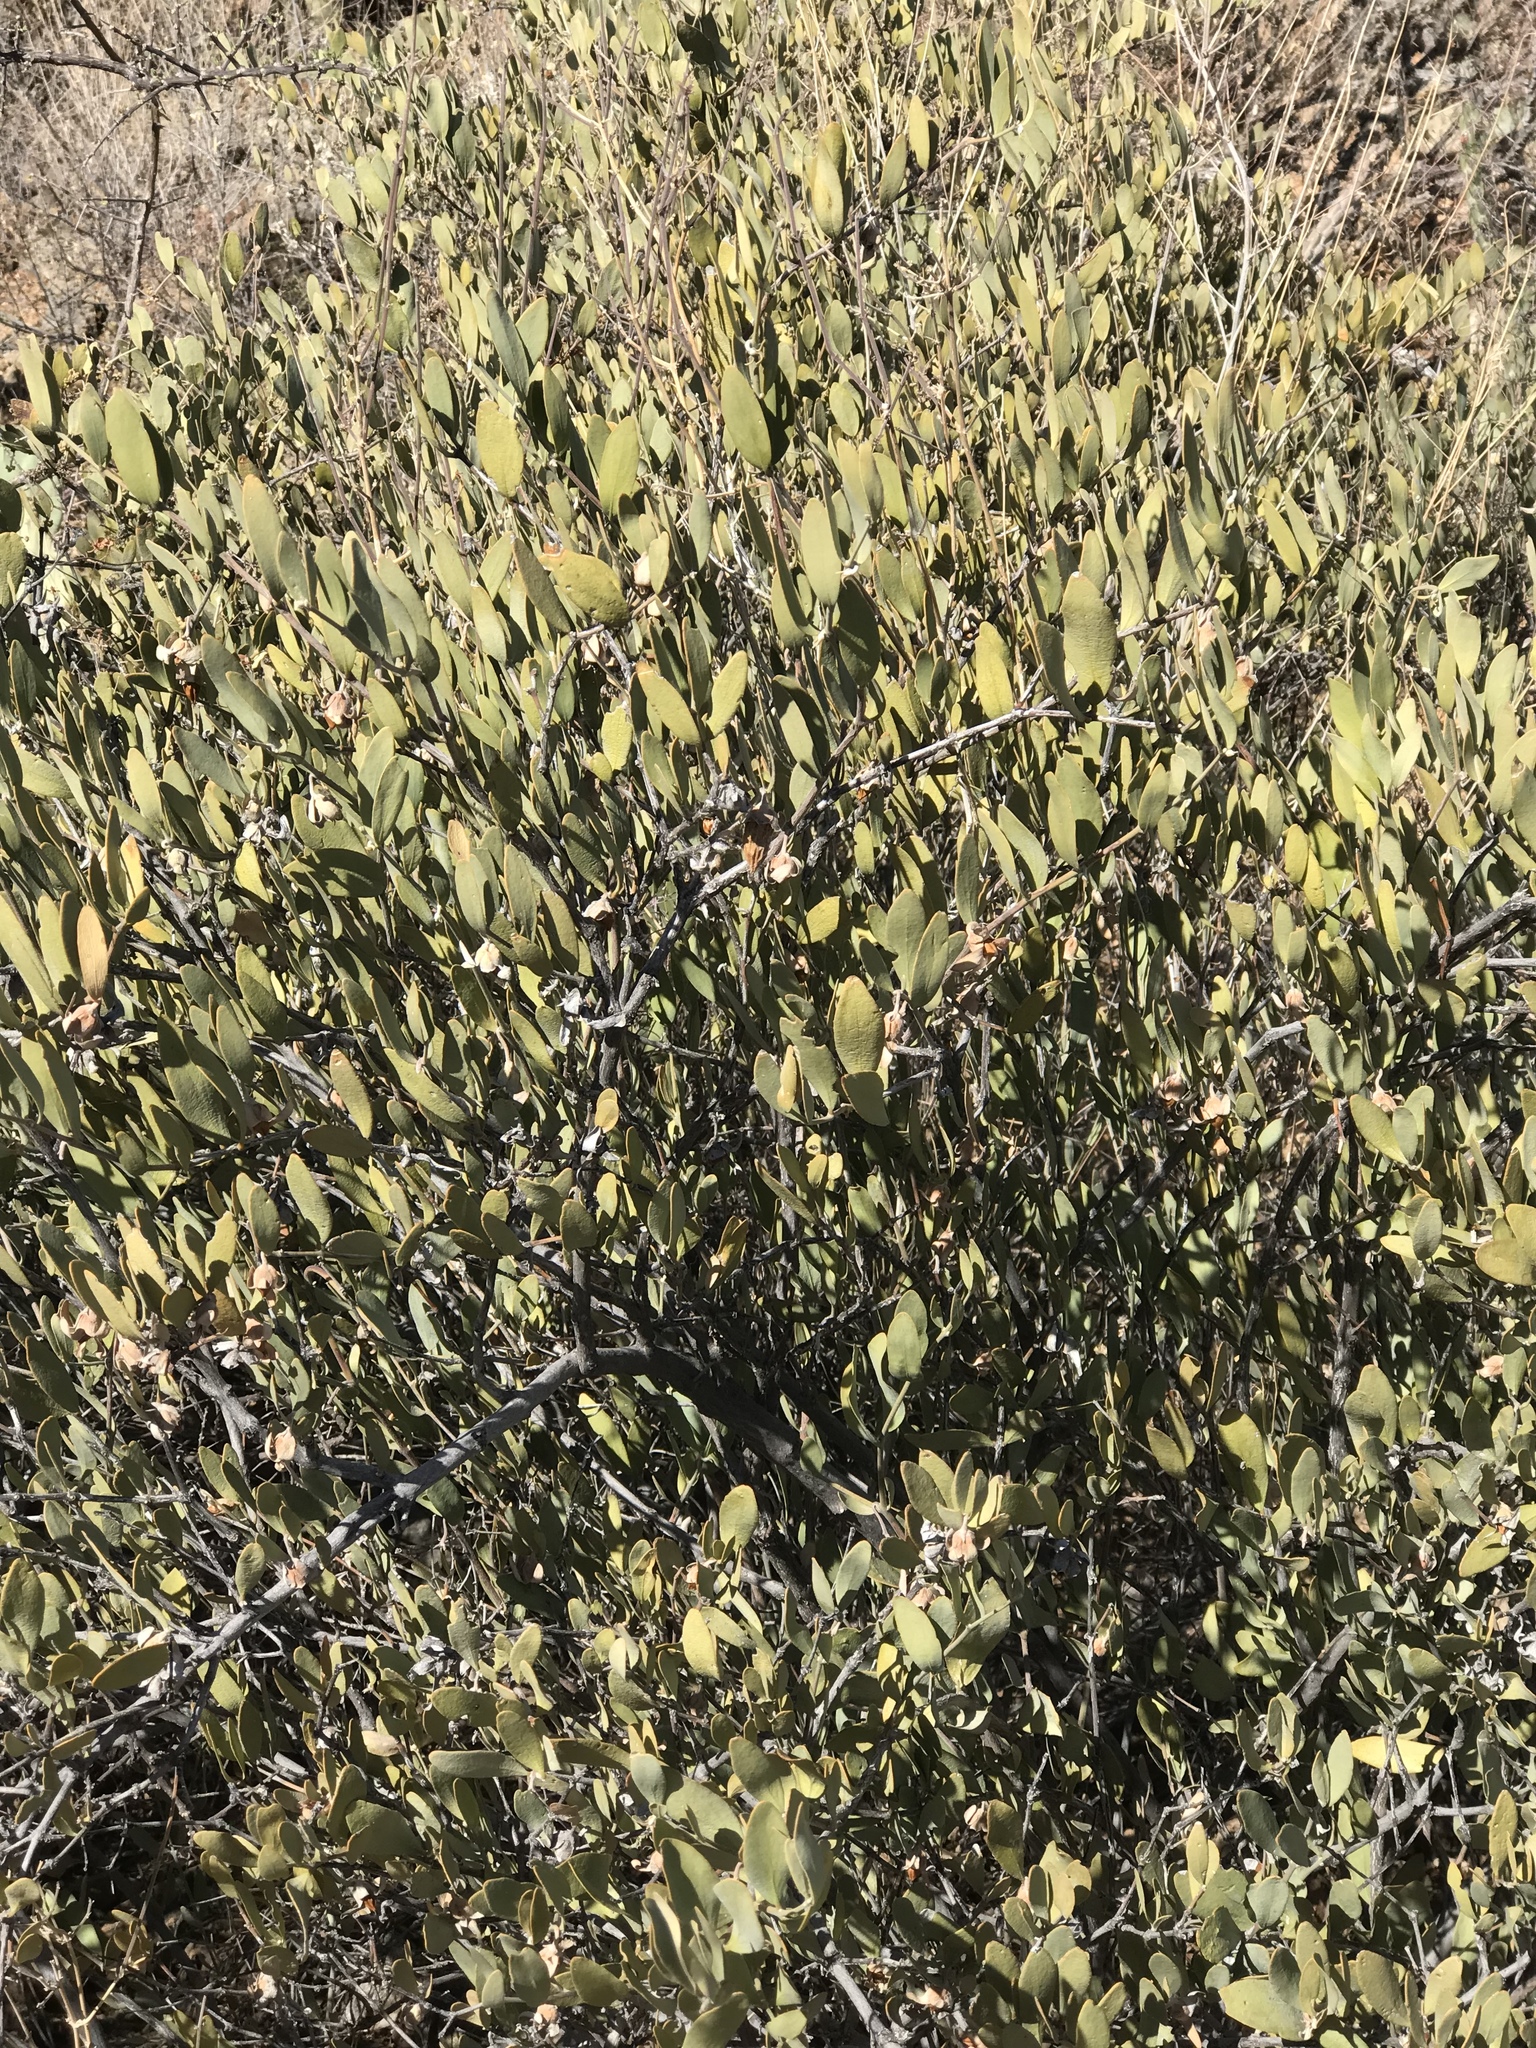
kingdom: Plantae
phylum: Tracheophyta
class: Magnoliopsida
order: Caryophyllales
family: Simmondsiaceae
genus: Simmondsia
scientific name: Simmondsia chinensis
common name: Jojoba
